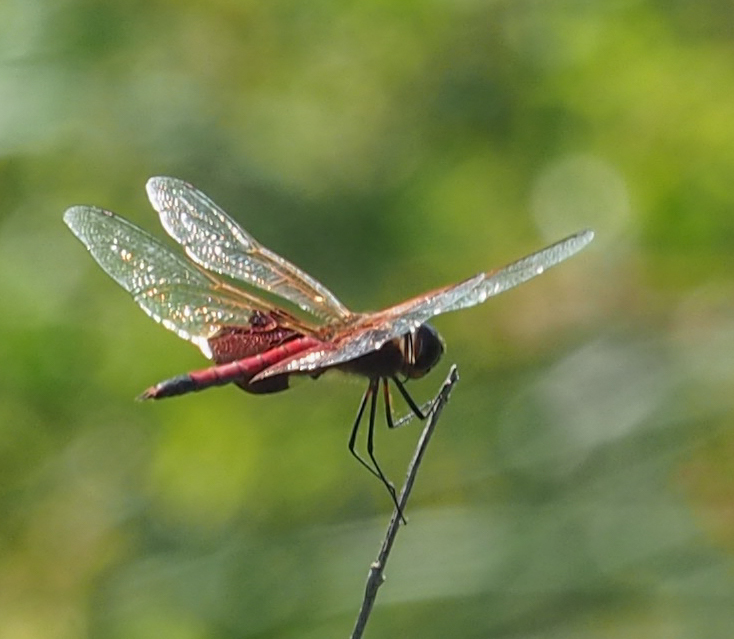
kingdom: Animalia
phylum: Arthropoda
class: Insecta
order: Odonata
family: Libellulidae
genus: Tramea
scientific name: Tramea carolina
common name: Carolina saddlebags
